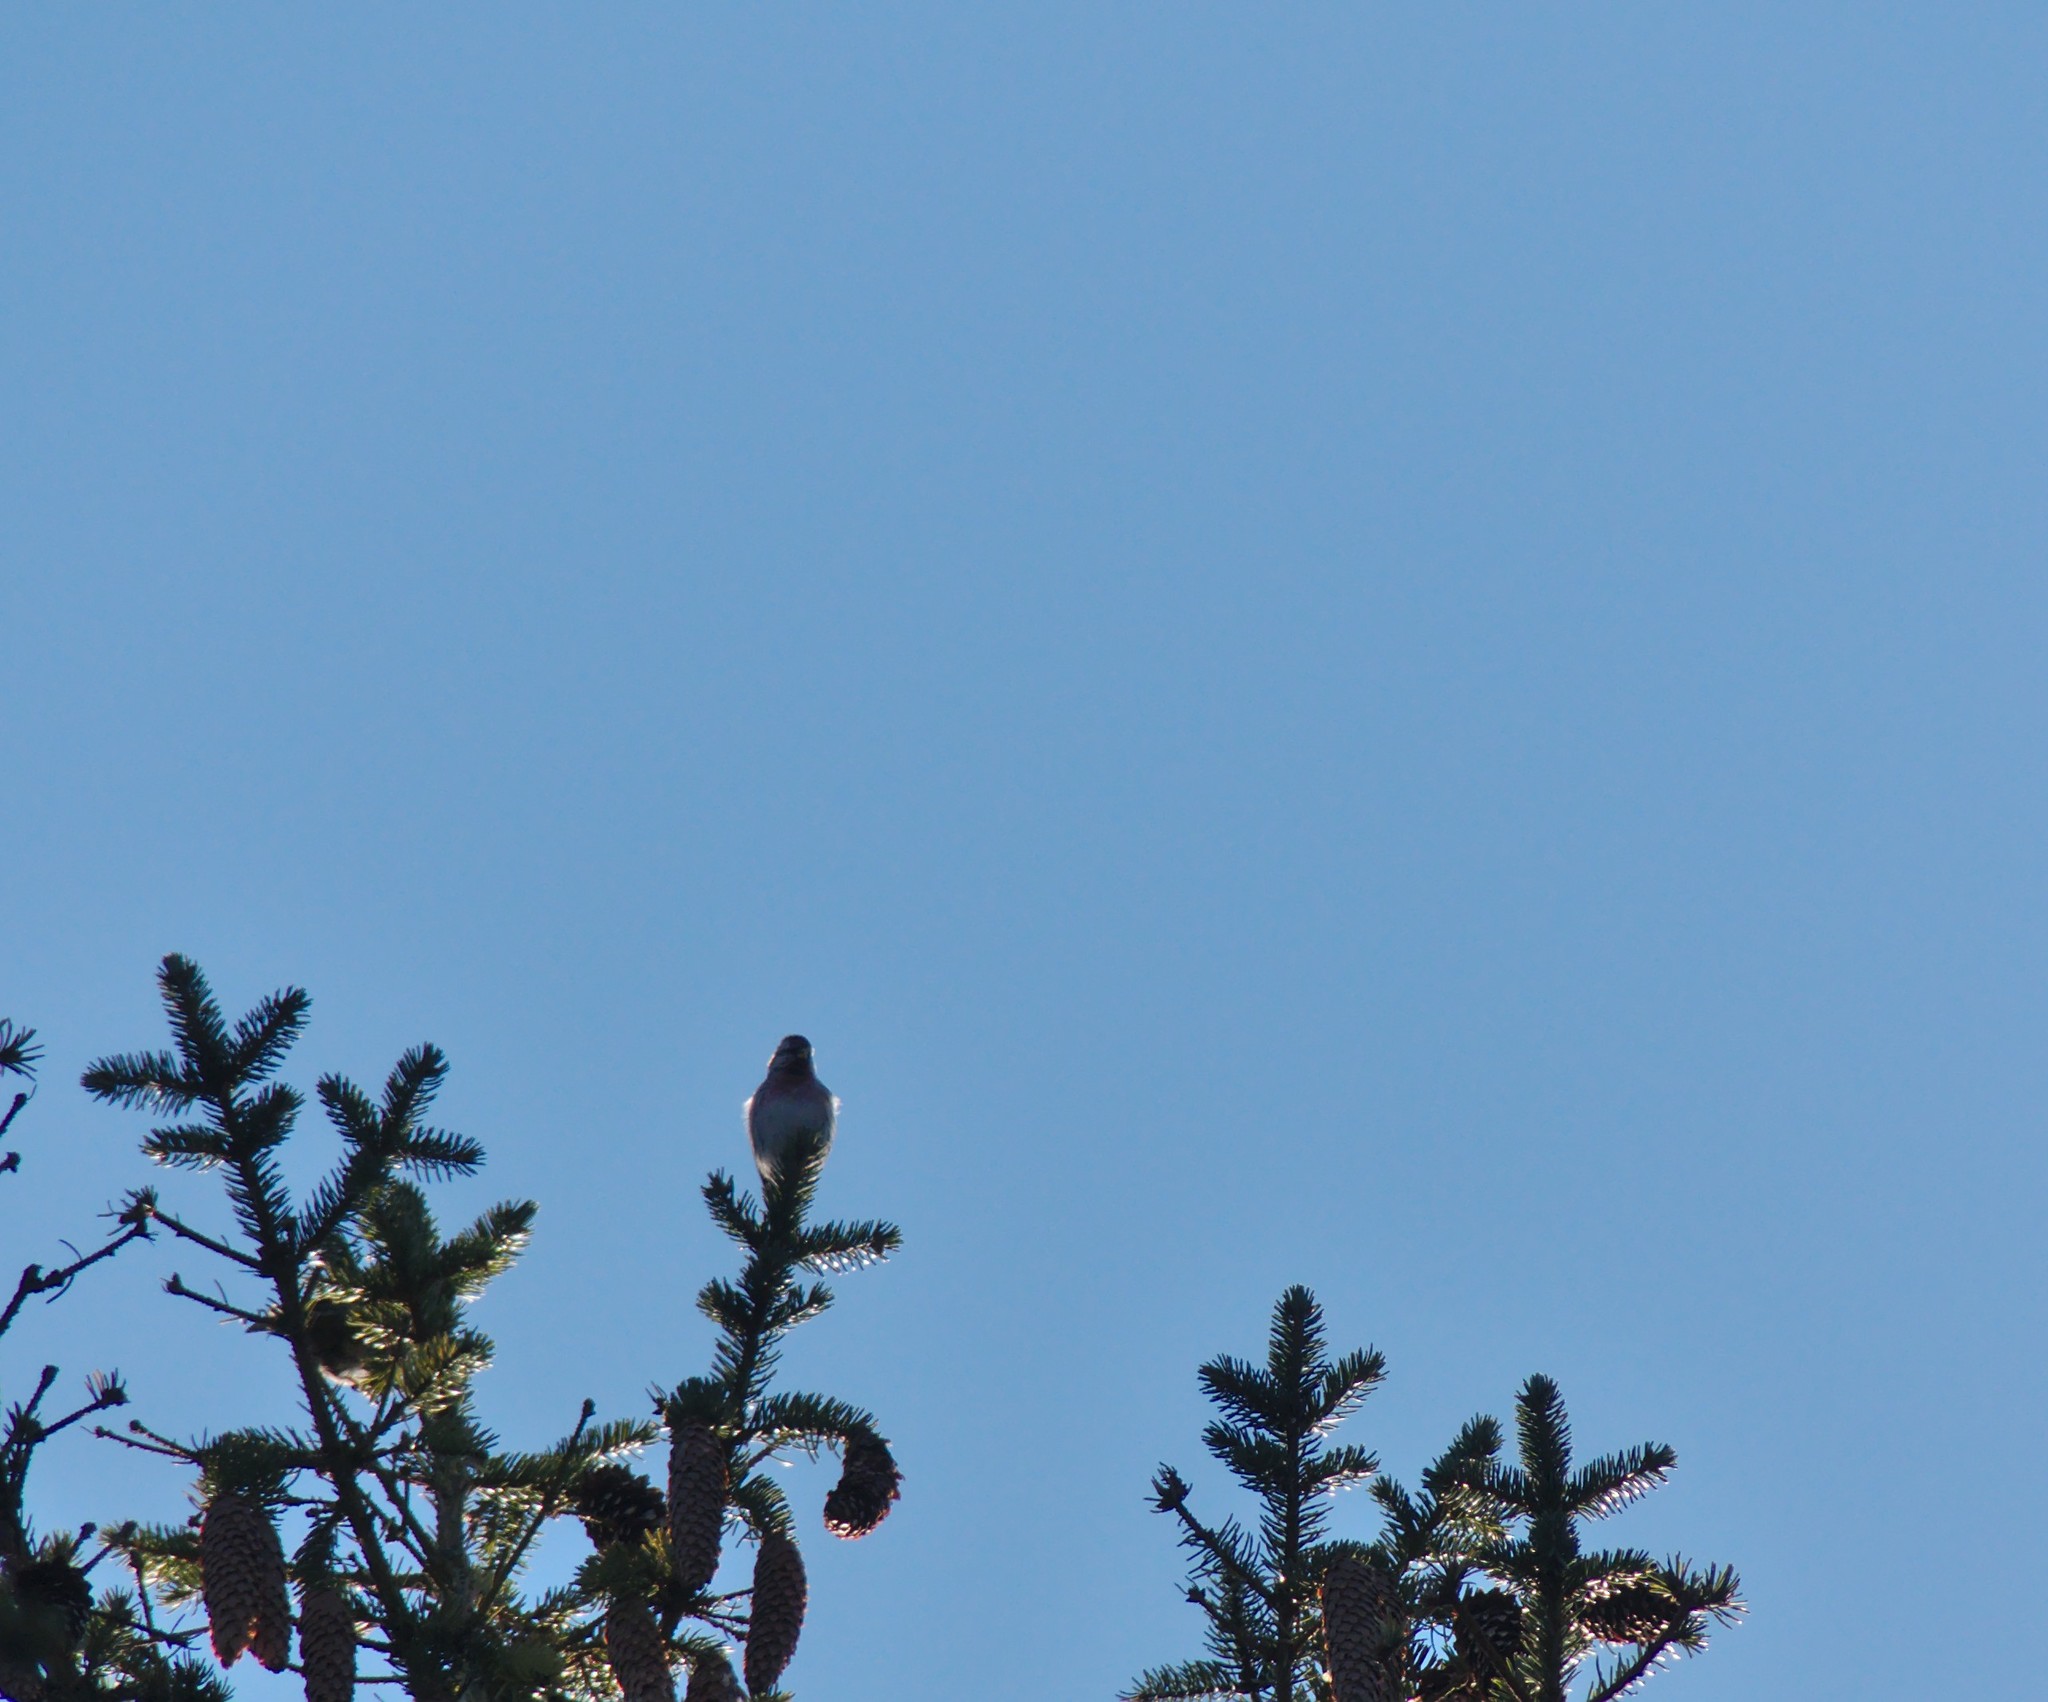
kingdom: Animalia
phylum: Chordata
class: Aves
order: Passeriformes
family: Fringillidae
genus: Acanthis
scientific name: Acanthis flammea
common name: Common redpoll
